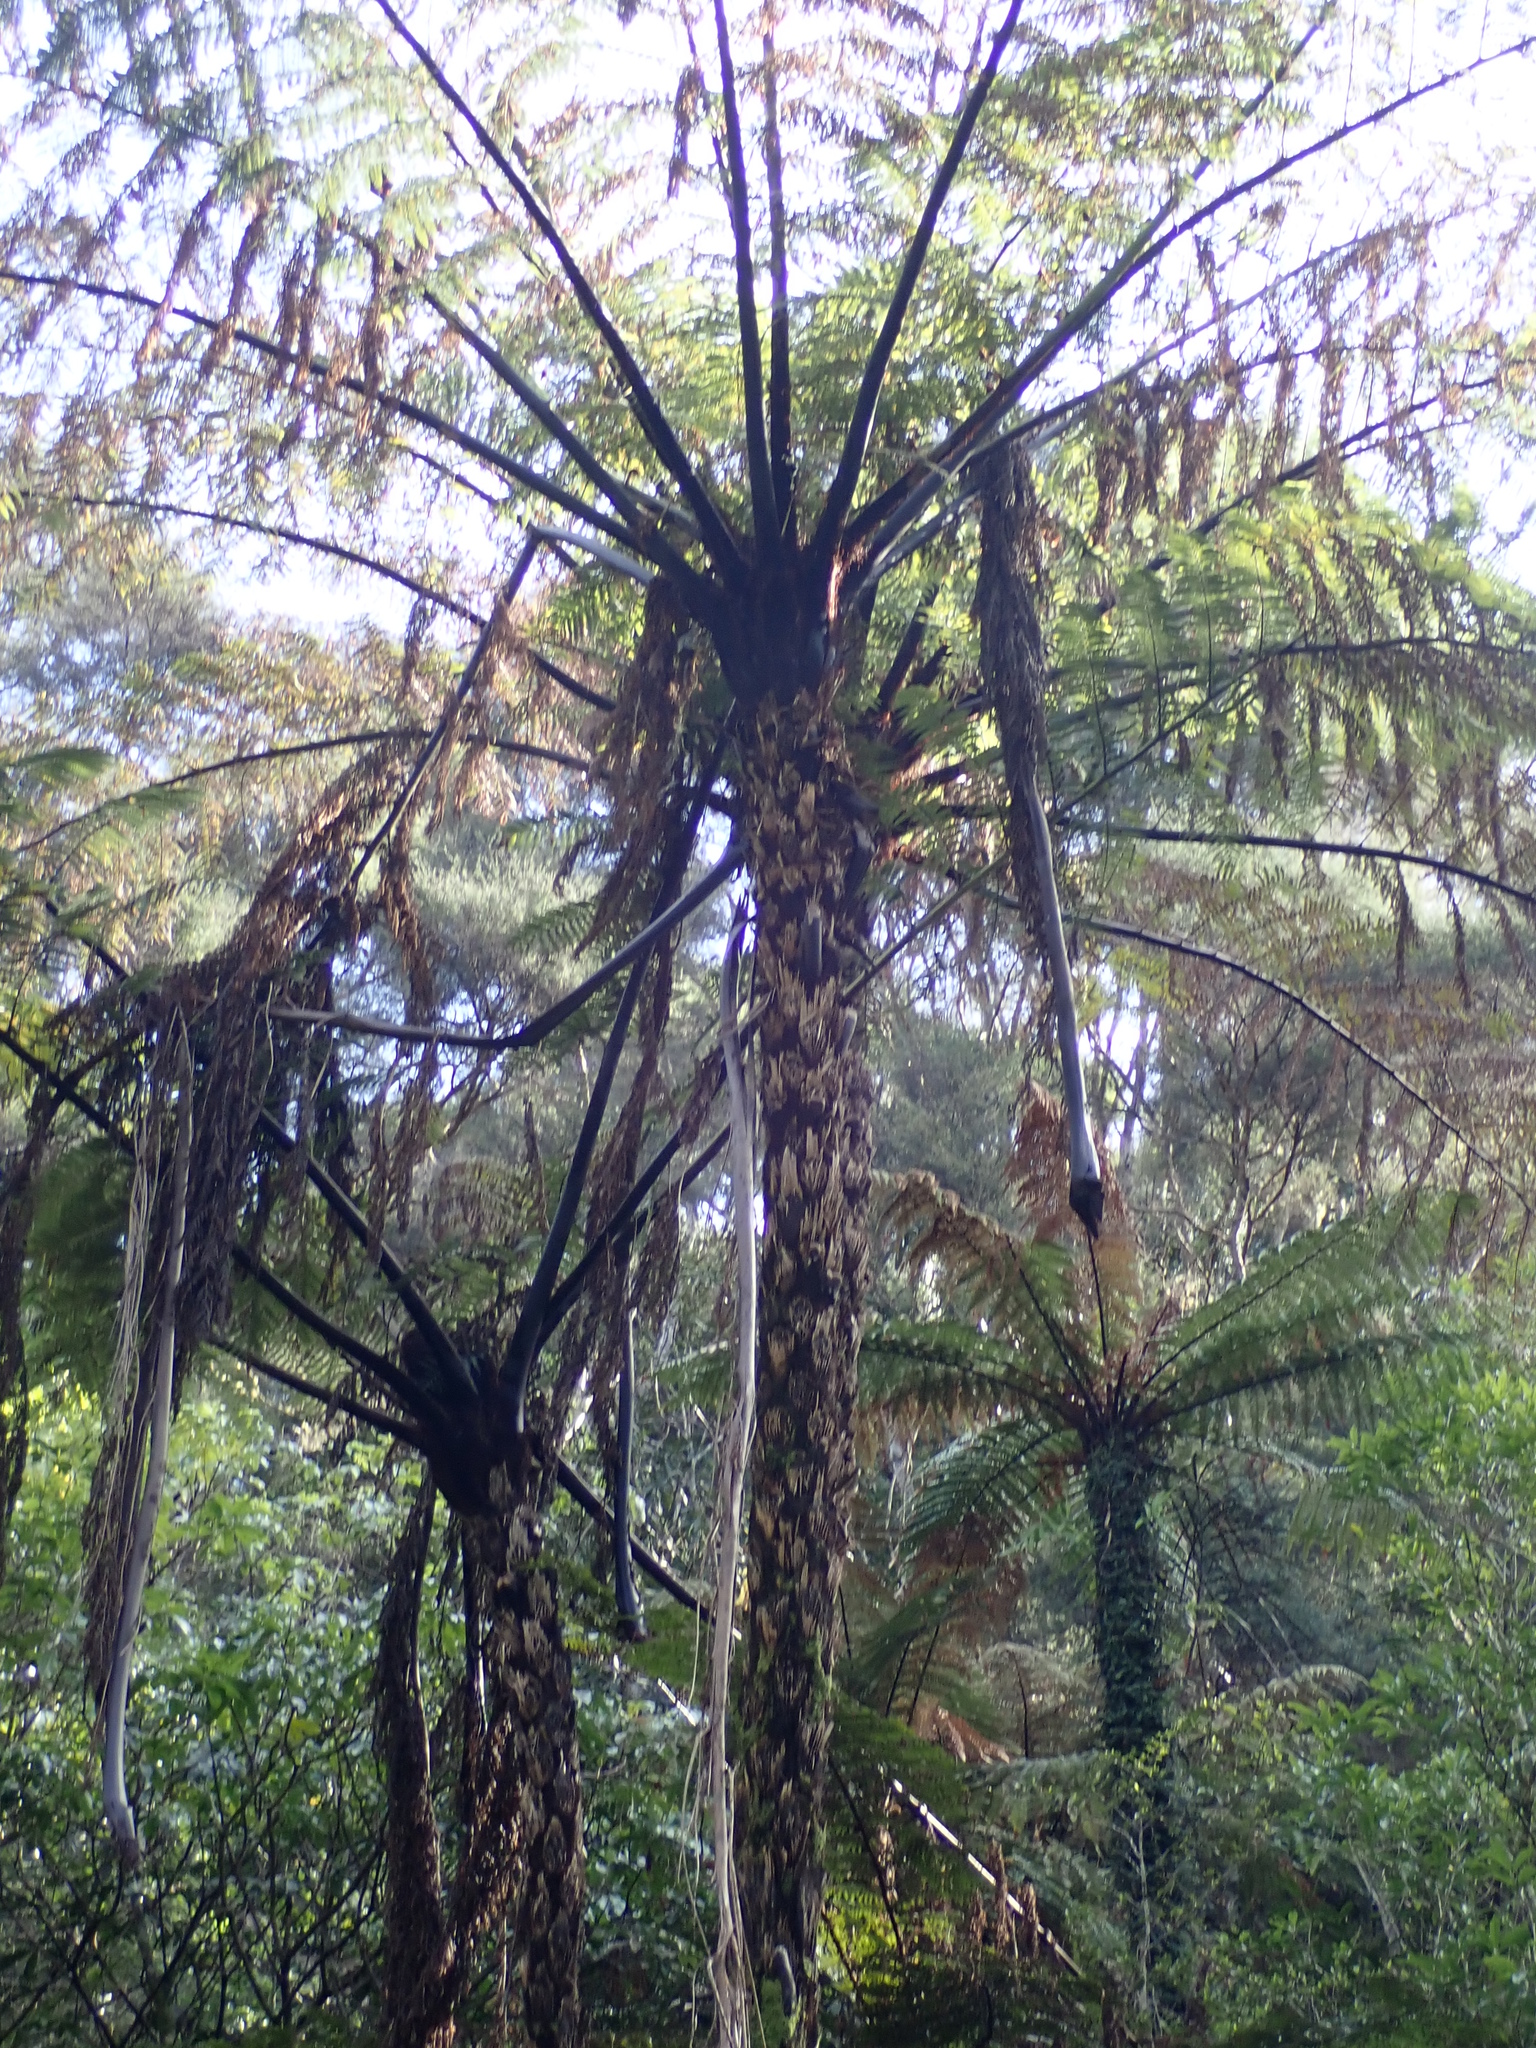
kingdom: Plantae
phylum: Tracheophyta
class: Polypodiopsida
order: Cyatheales
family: Cyatheaceae
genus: Sphaeropteris
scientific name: Sphaeropteris medullaris
